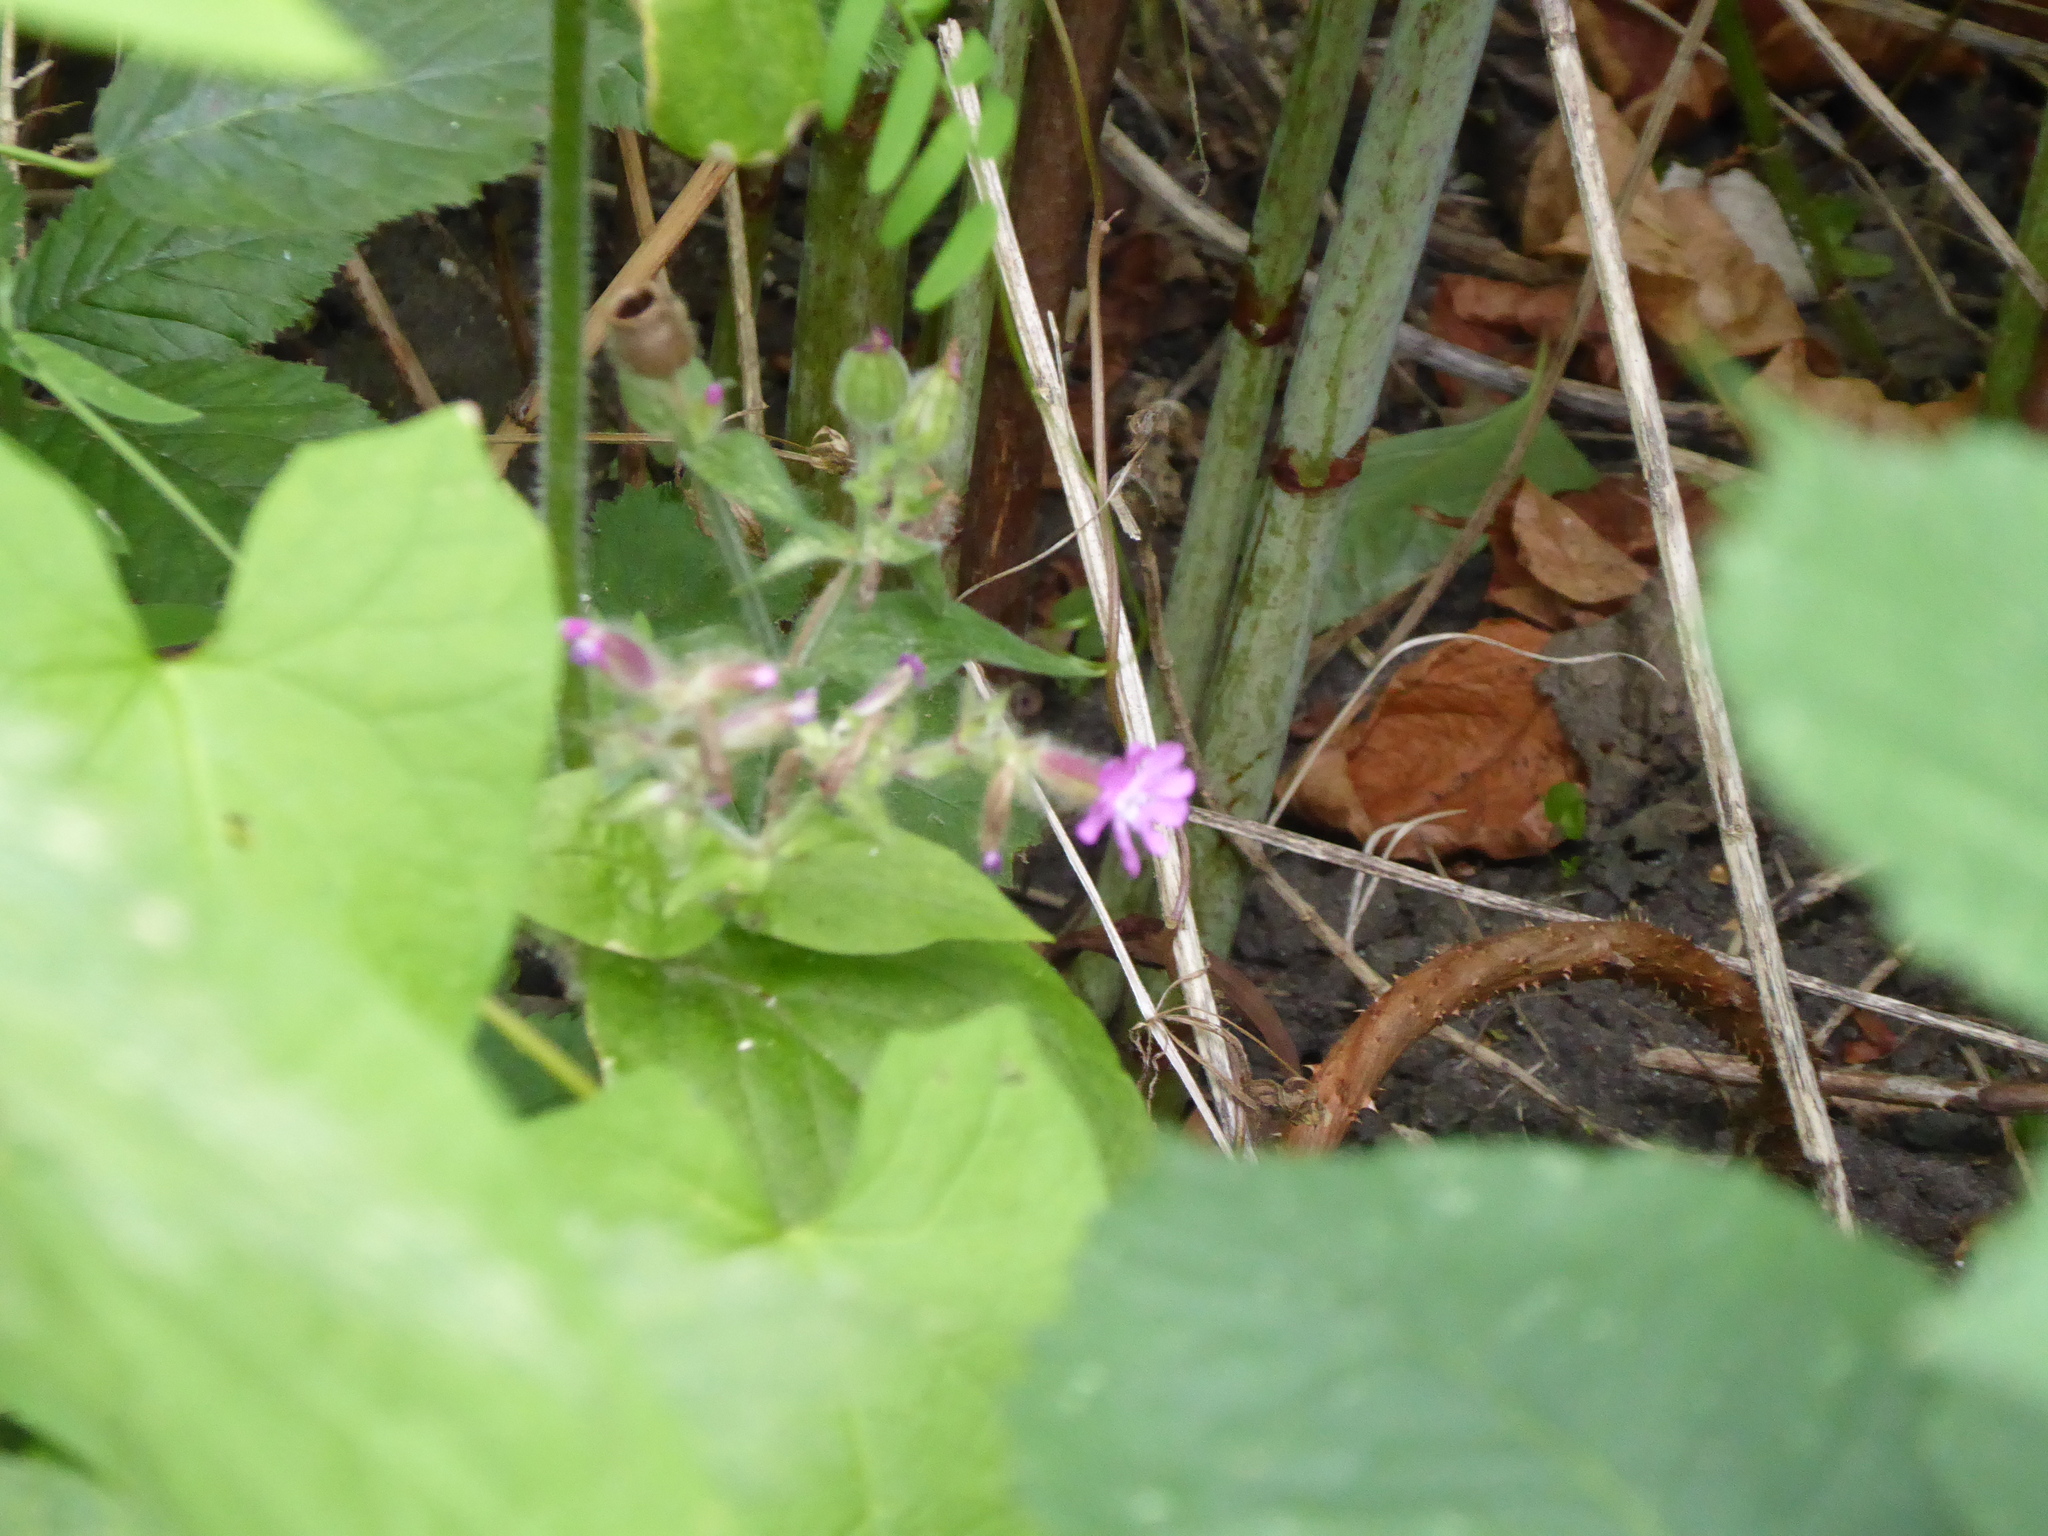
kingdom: Plantae
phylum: Tracheophyta
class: Magnoliopsida
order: Caryophyllales
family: Caryophyllaceae
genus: Silene
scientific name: Silene dioica
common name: Red campion
